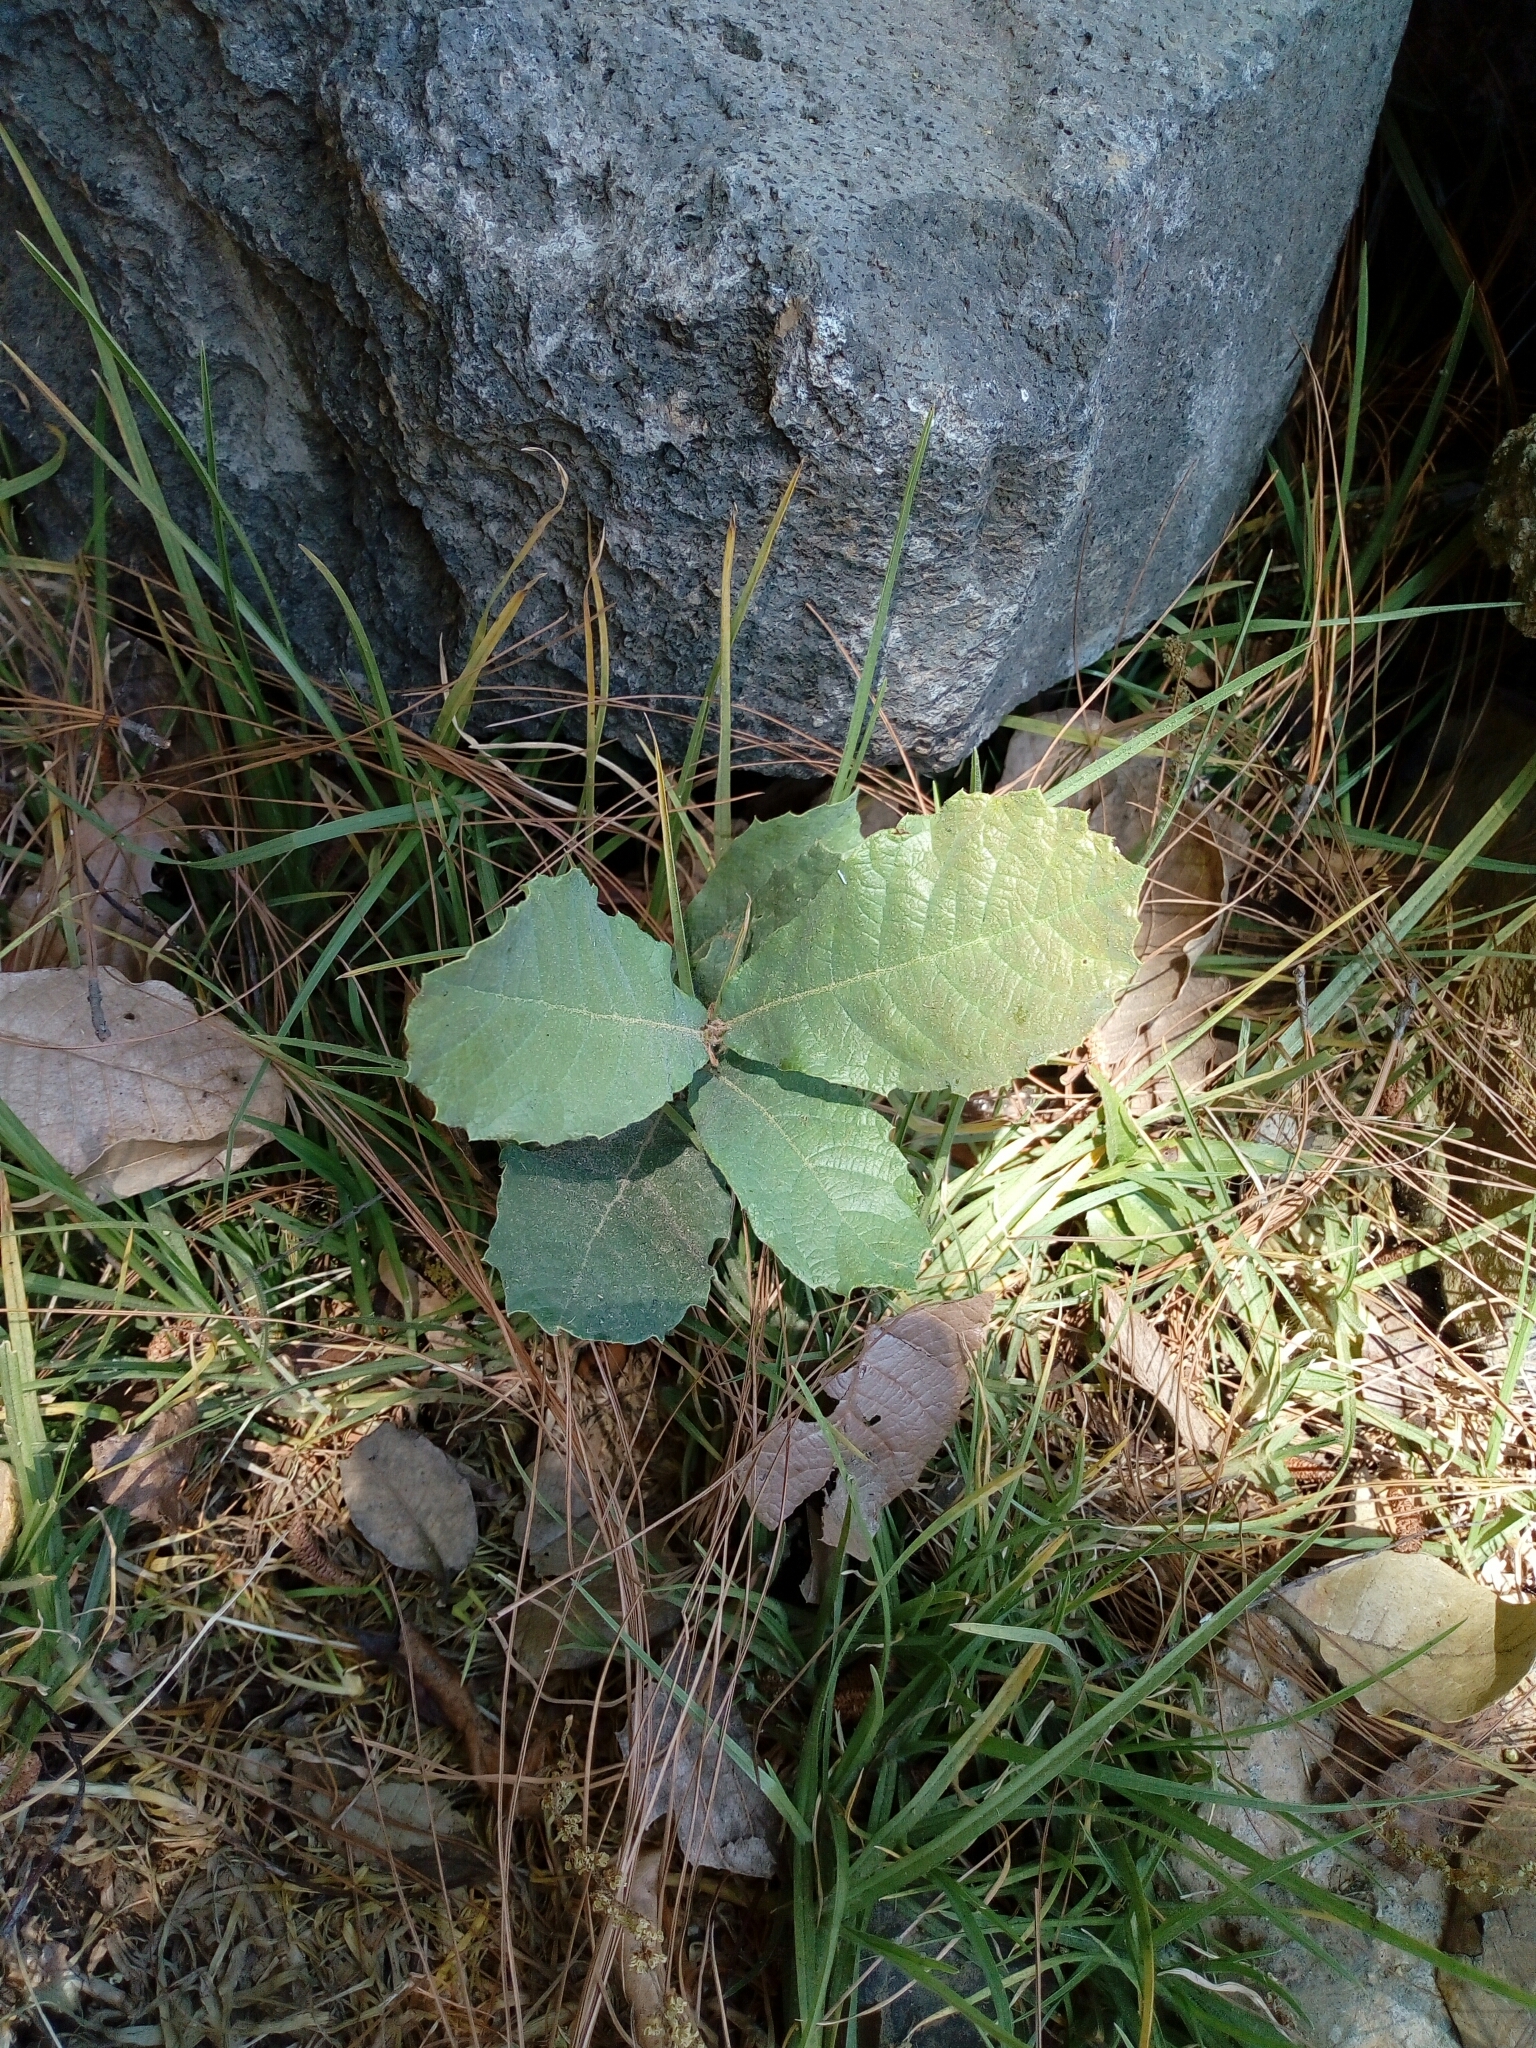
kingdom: Plantae
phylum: Tracheophyta
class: Magnoliopsida
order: Fagales
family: Fagaceae
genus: Quercus
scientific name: Quercus rugosa
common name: Netleaf oak
